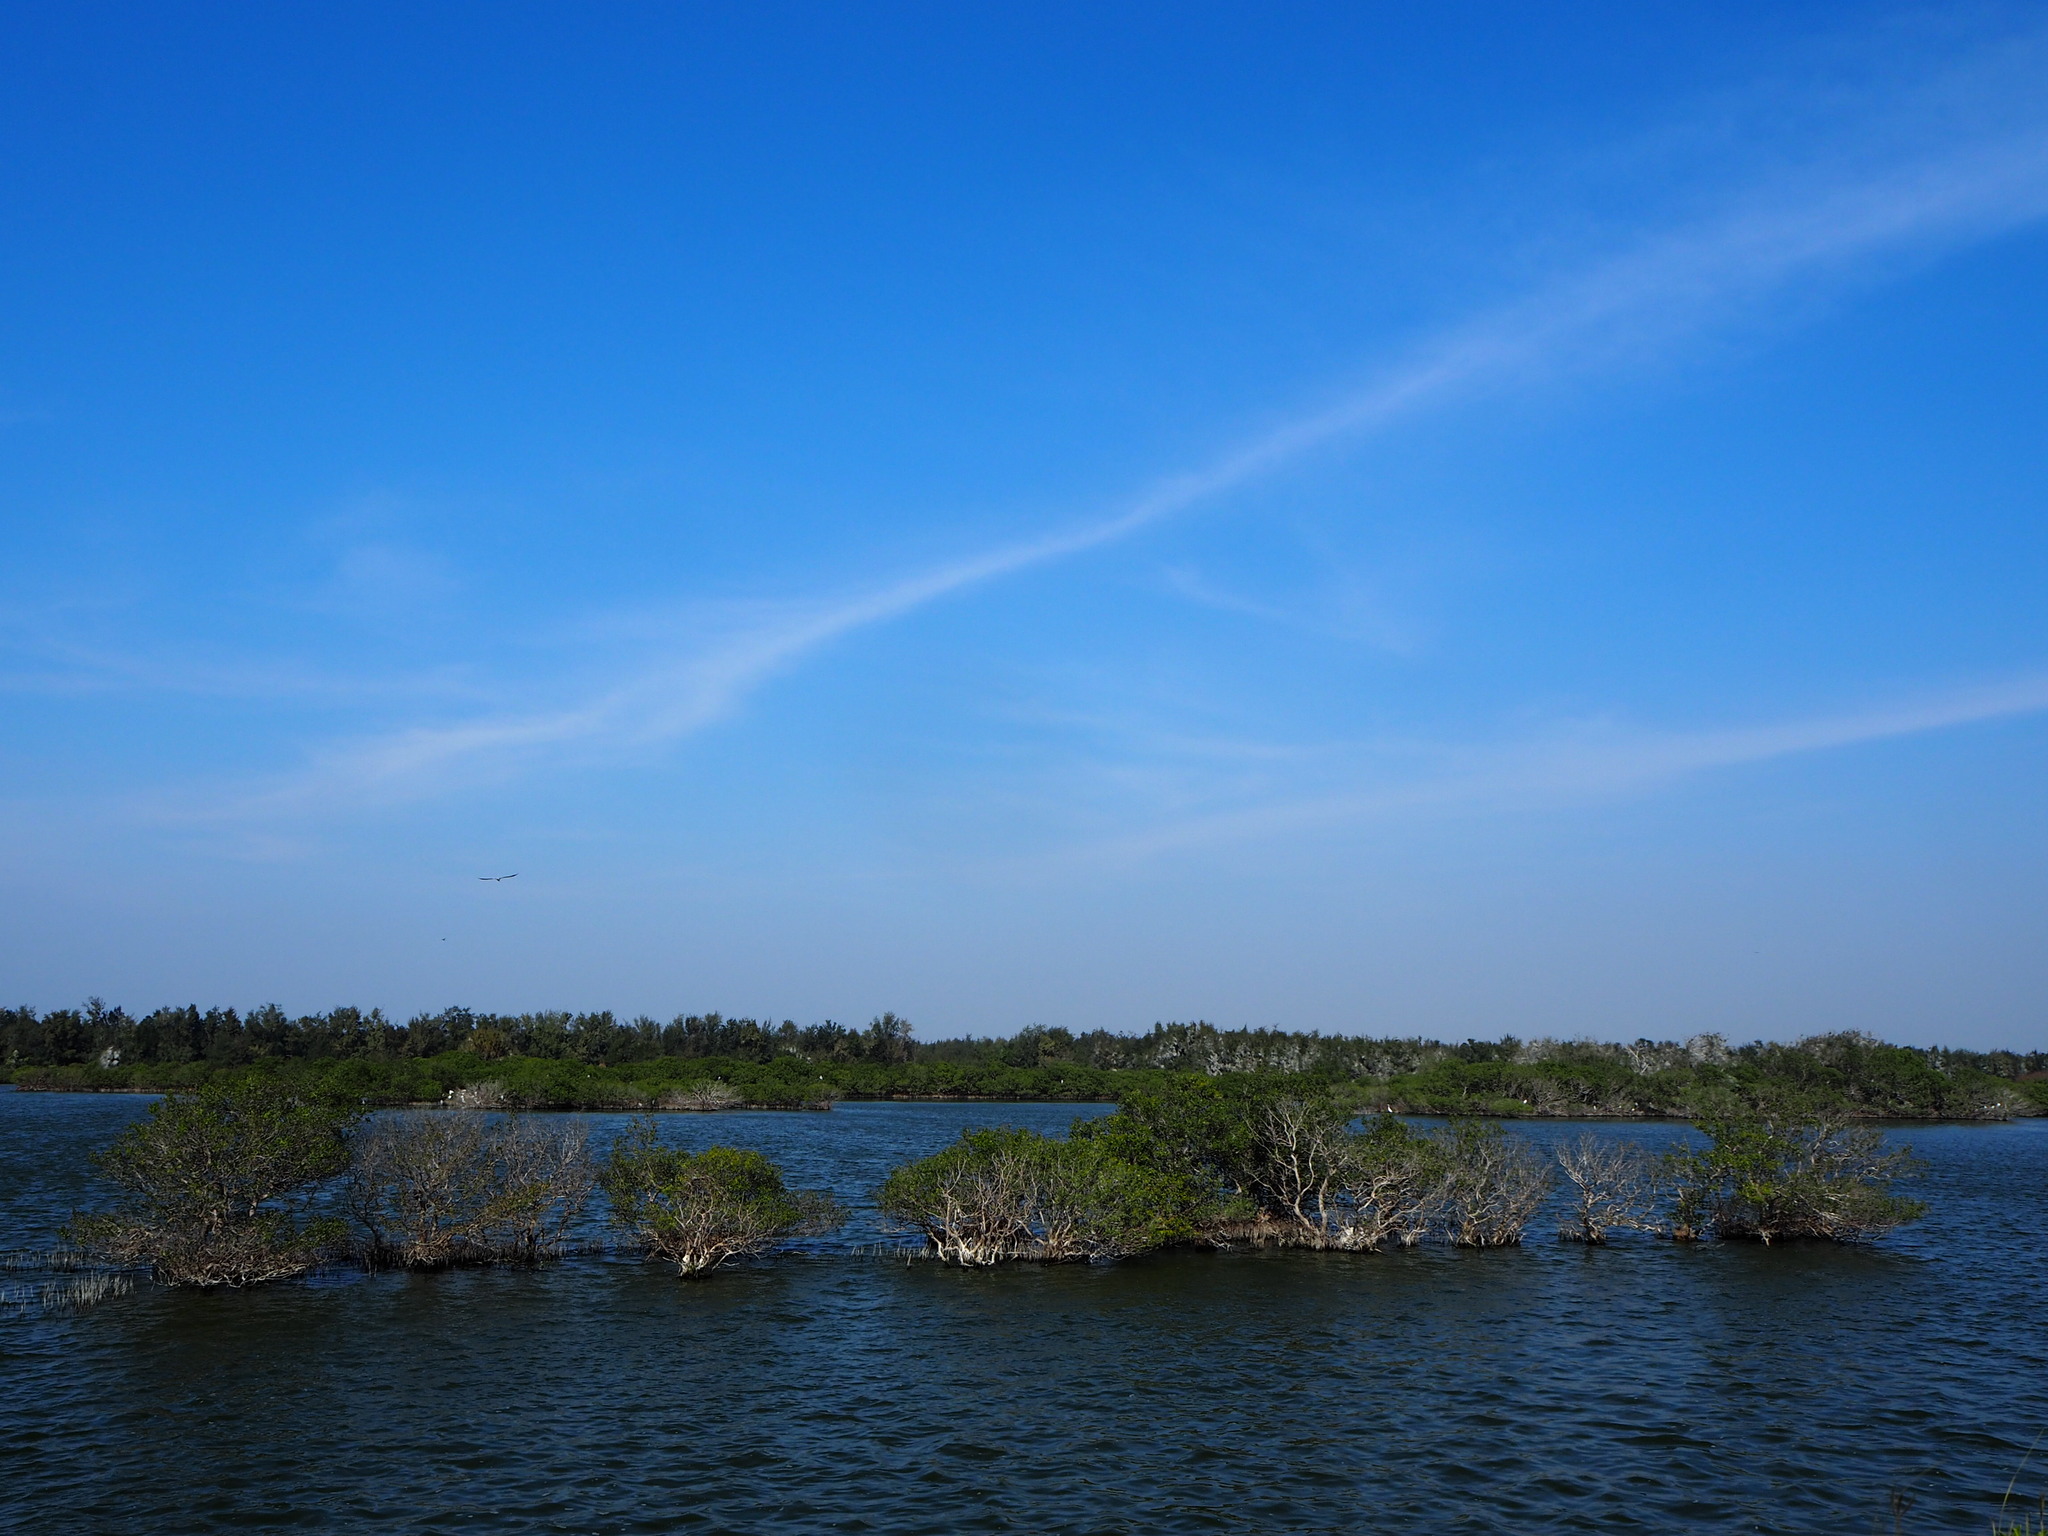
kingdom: Plantae
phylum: Tracheophyta
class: Magnoliopsida
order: Lamiales
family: Acanthaceae
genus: Avicennia
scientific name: Avicennia marina
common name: Gray mangrove
